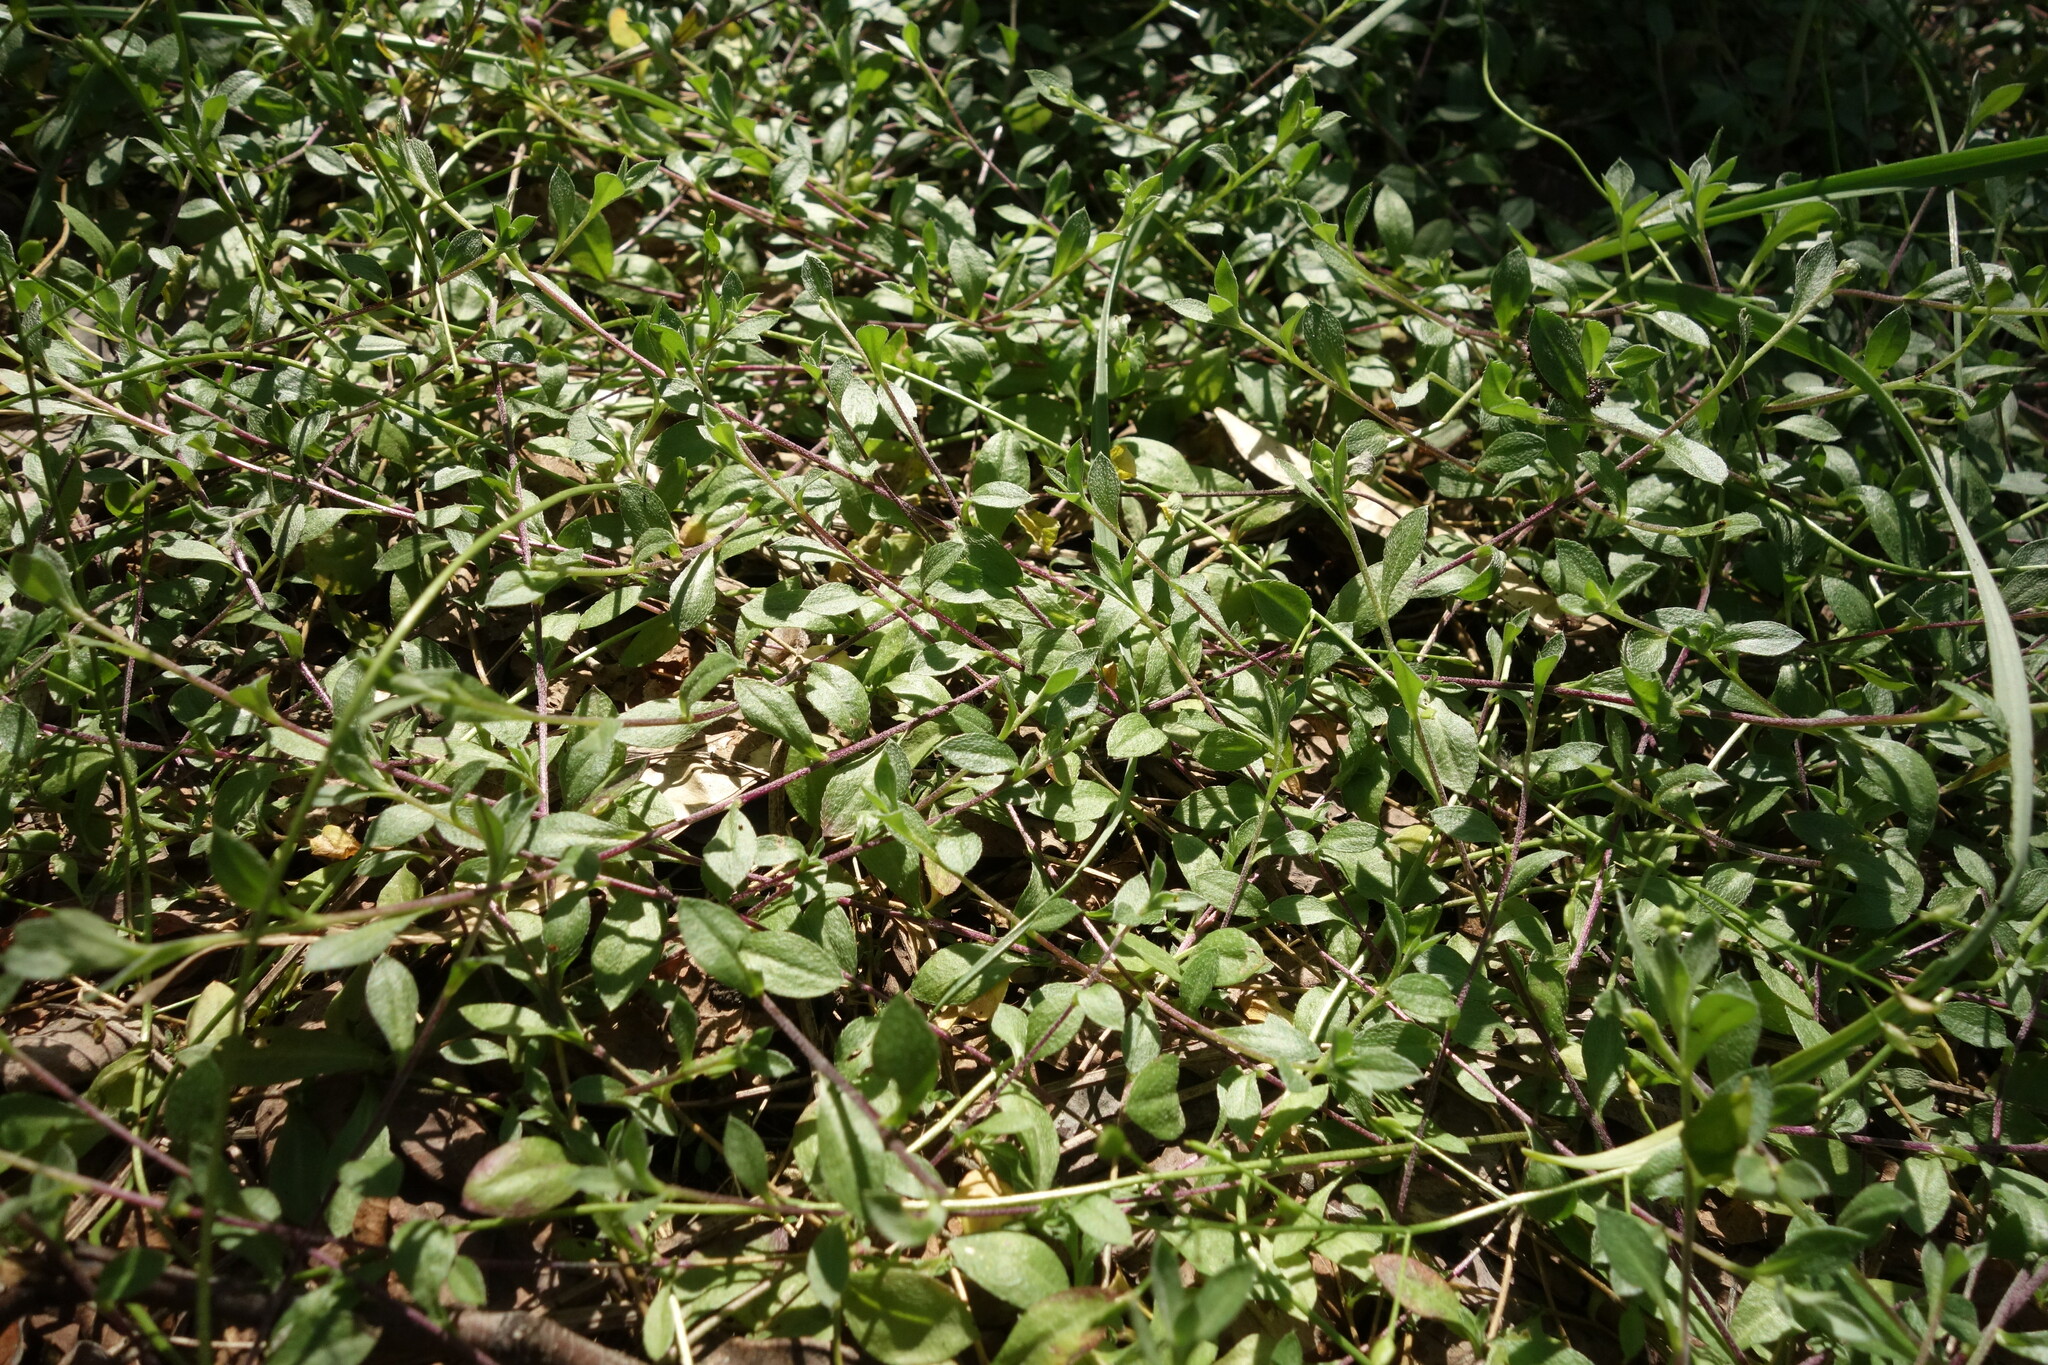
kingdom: Plantae
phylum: Tracheophyta
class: Magnoliopsida
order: Brassicales
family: Brassicaceae
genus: Draba
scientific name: Draba sibirica
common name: Siberian draba
